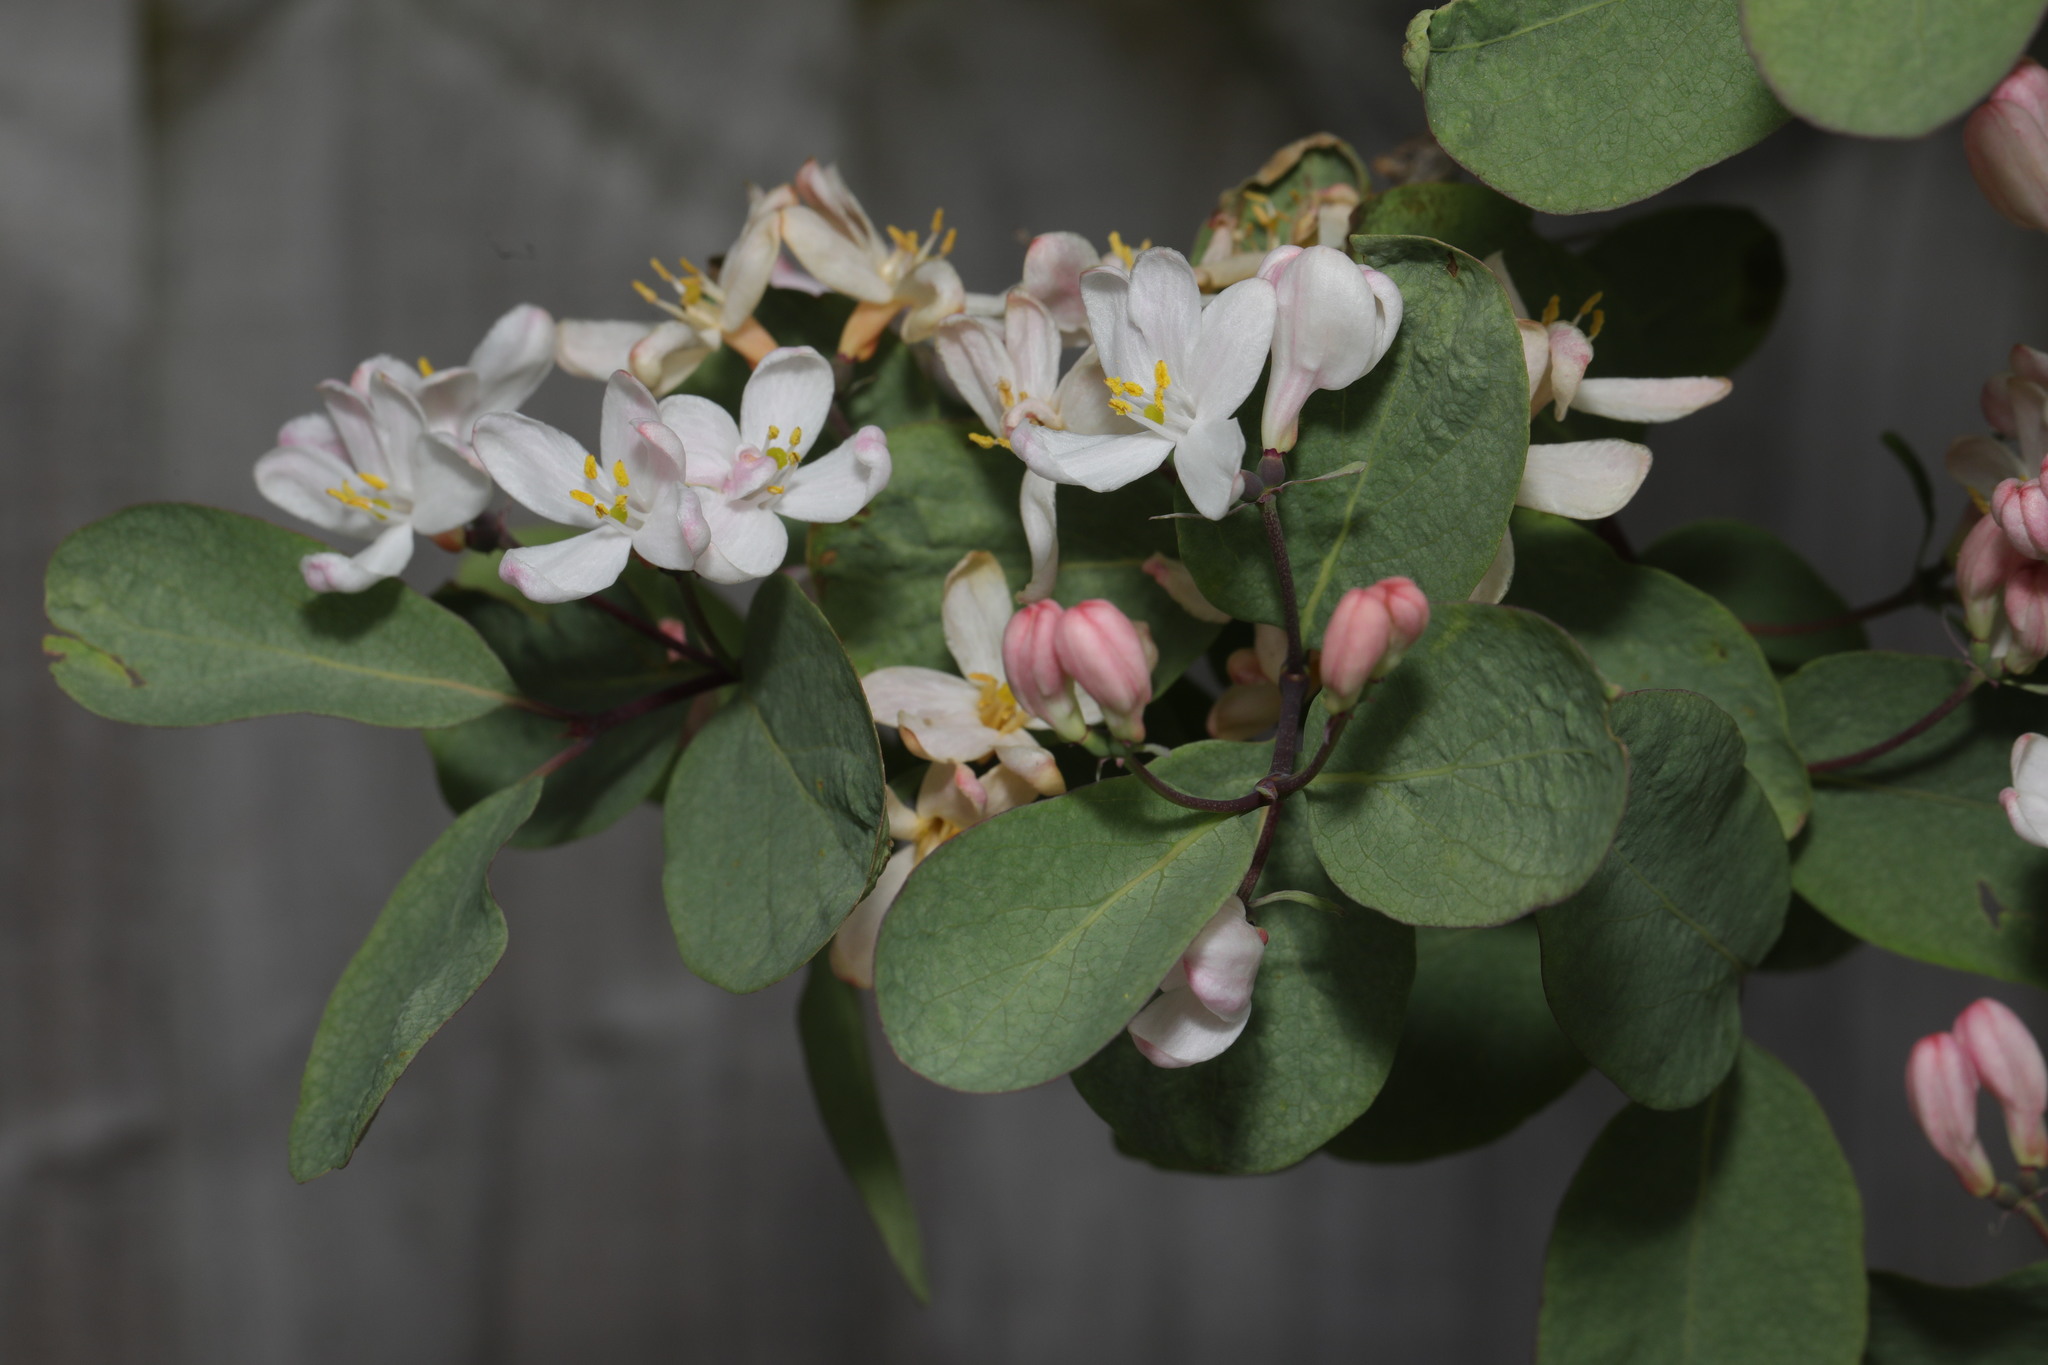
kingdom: Plantae
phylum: Tracheophyta
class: Magnoliopsida
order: Dipsacales
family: Caprifoliaceae
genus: Lonicera
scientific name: Lonicera tatarica
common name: Tatarian honeysuckle
